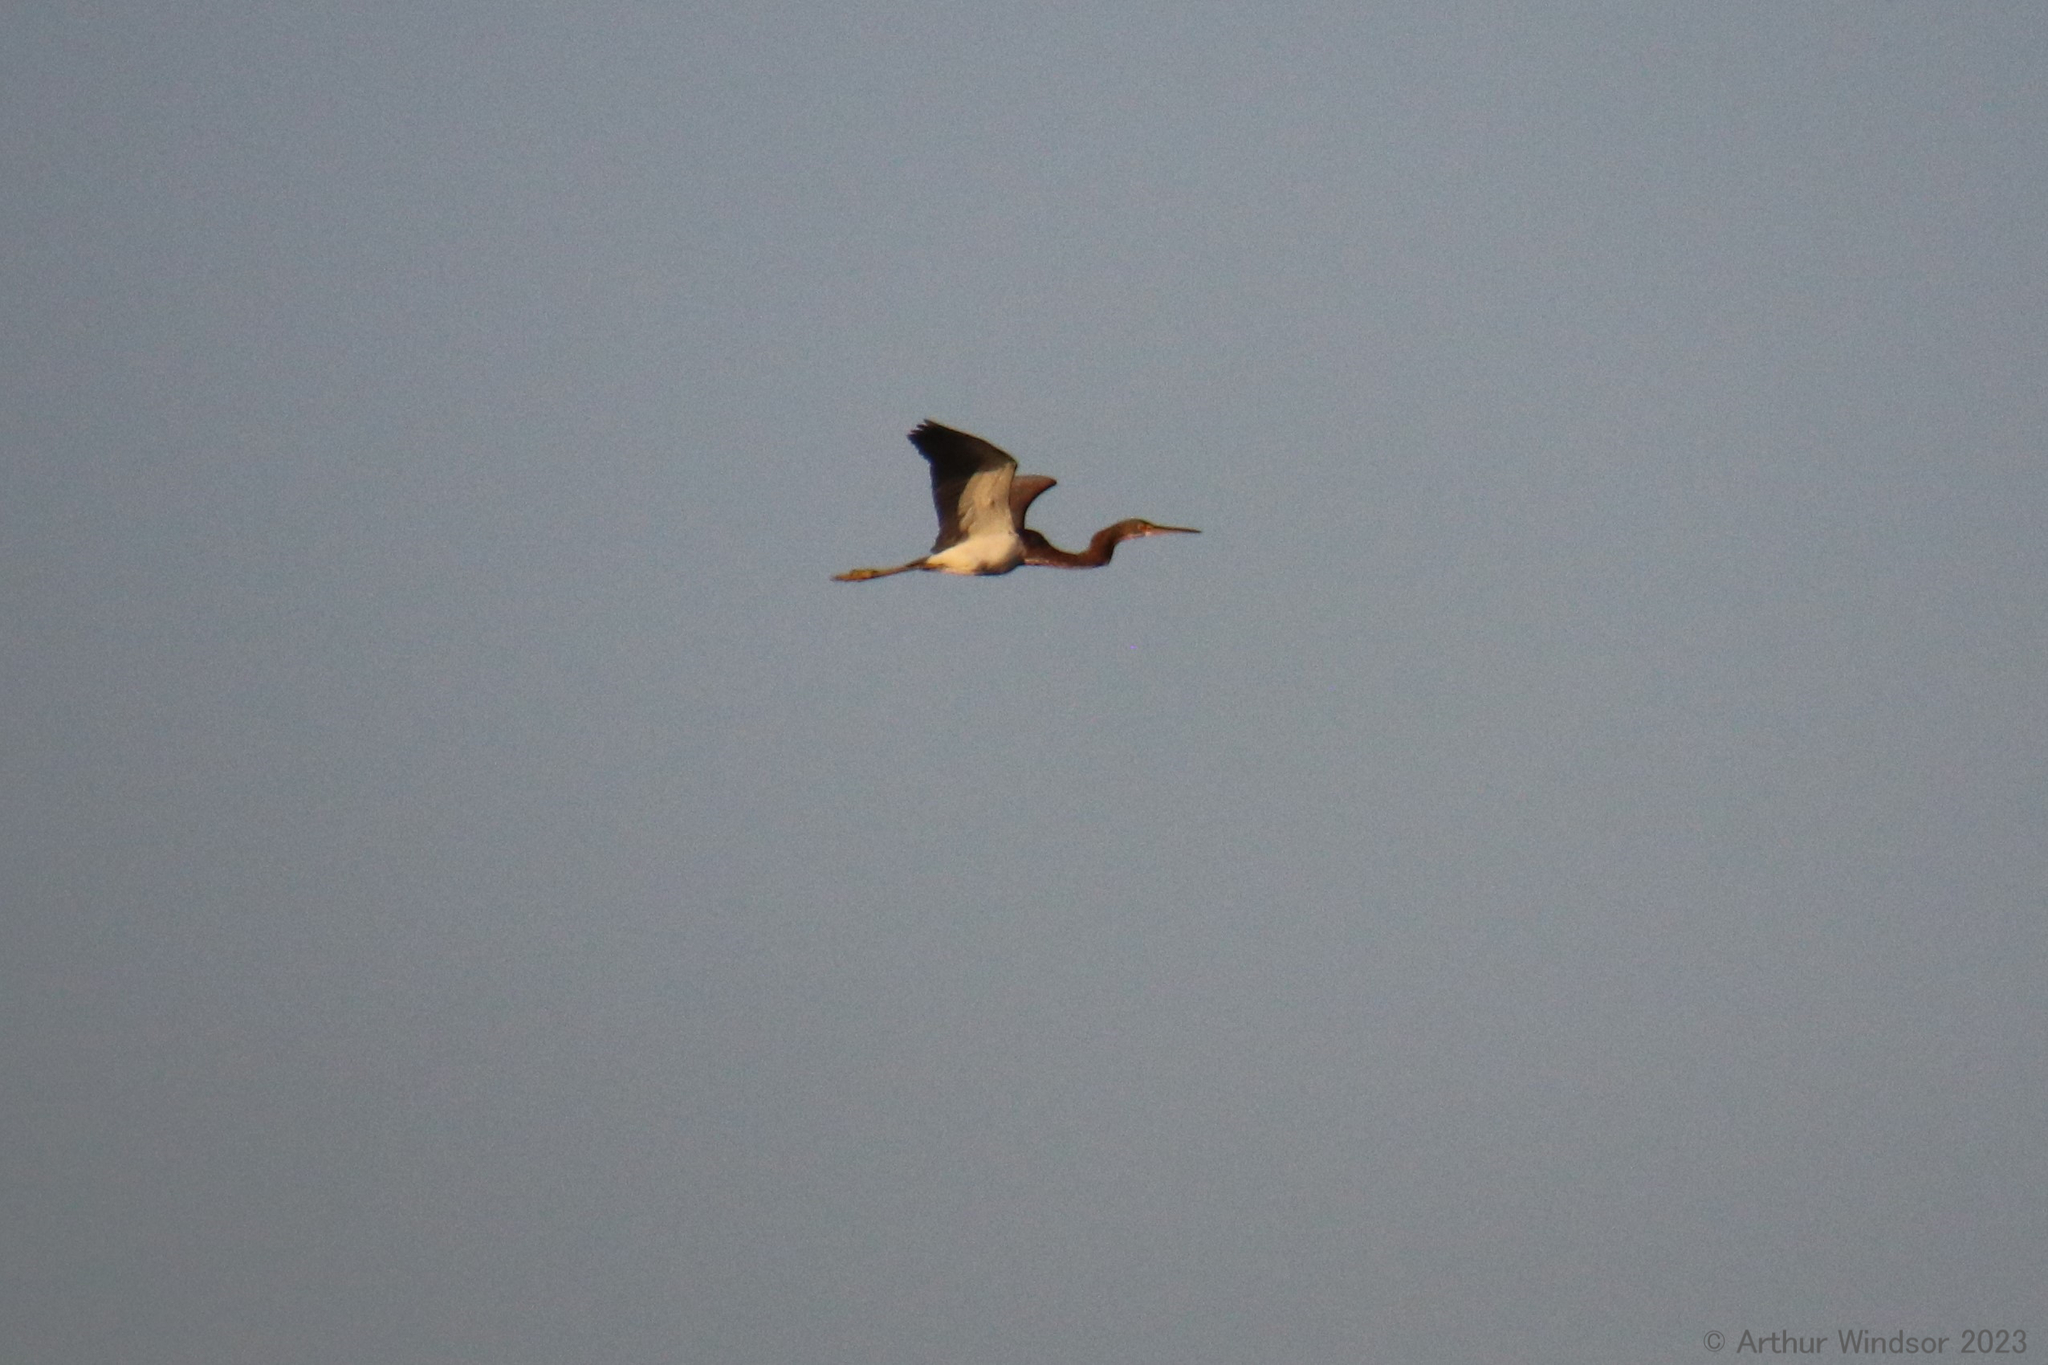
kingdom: Animalia
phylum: Chordata
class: Aves
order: Pelecaniformes
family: Ardeidae
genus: Egretta
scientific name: Egretta tricolor
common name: Tricolored heron
